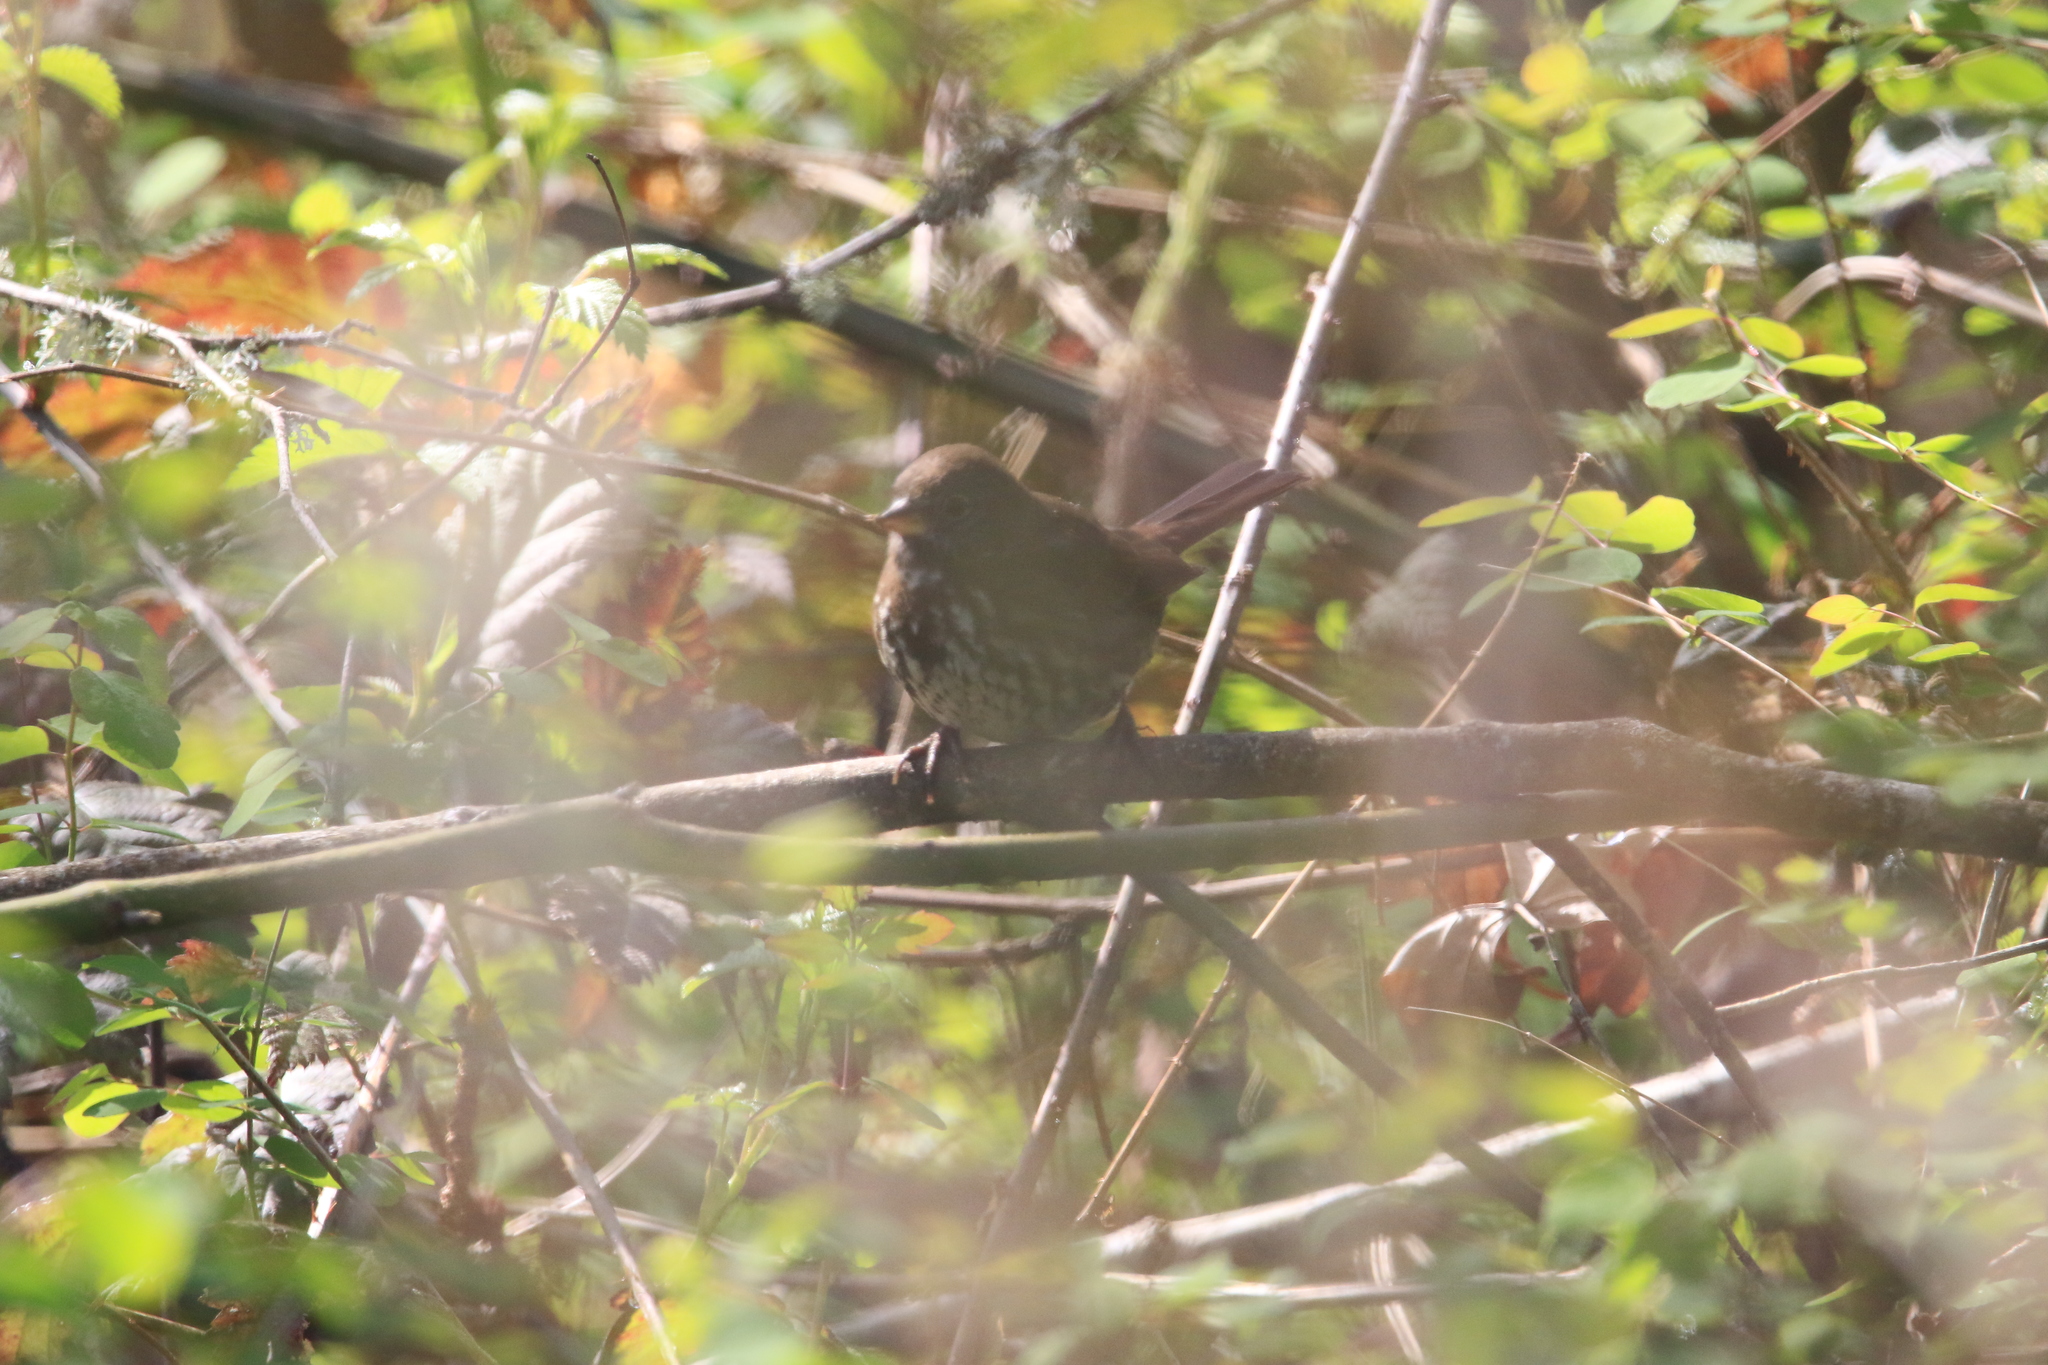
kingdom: Animalia
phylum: Chordata
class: Aves
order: Passeriformes
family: Passerellidae
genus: Passerella
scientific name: Passerella iliaca
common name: Fox sparrow
